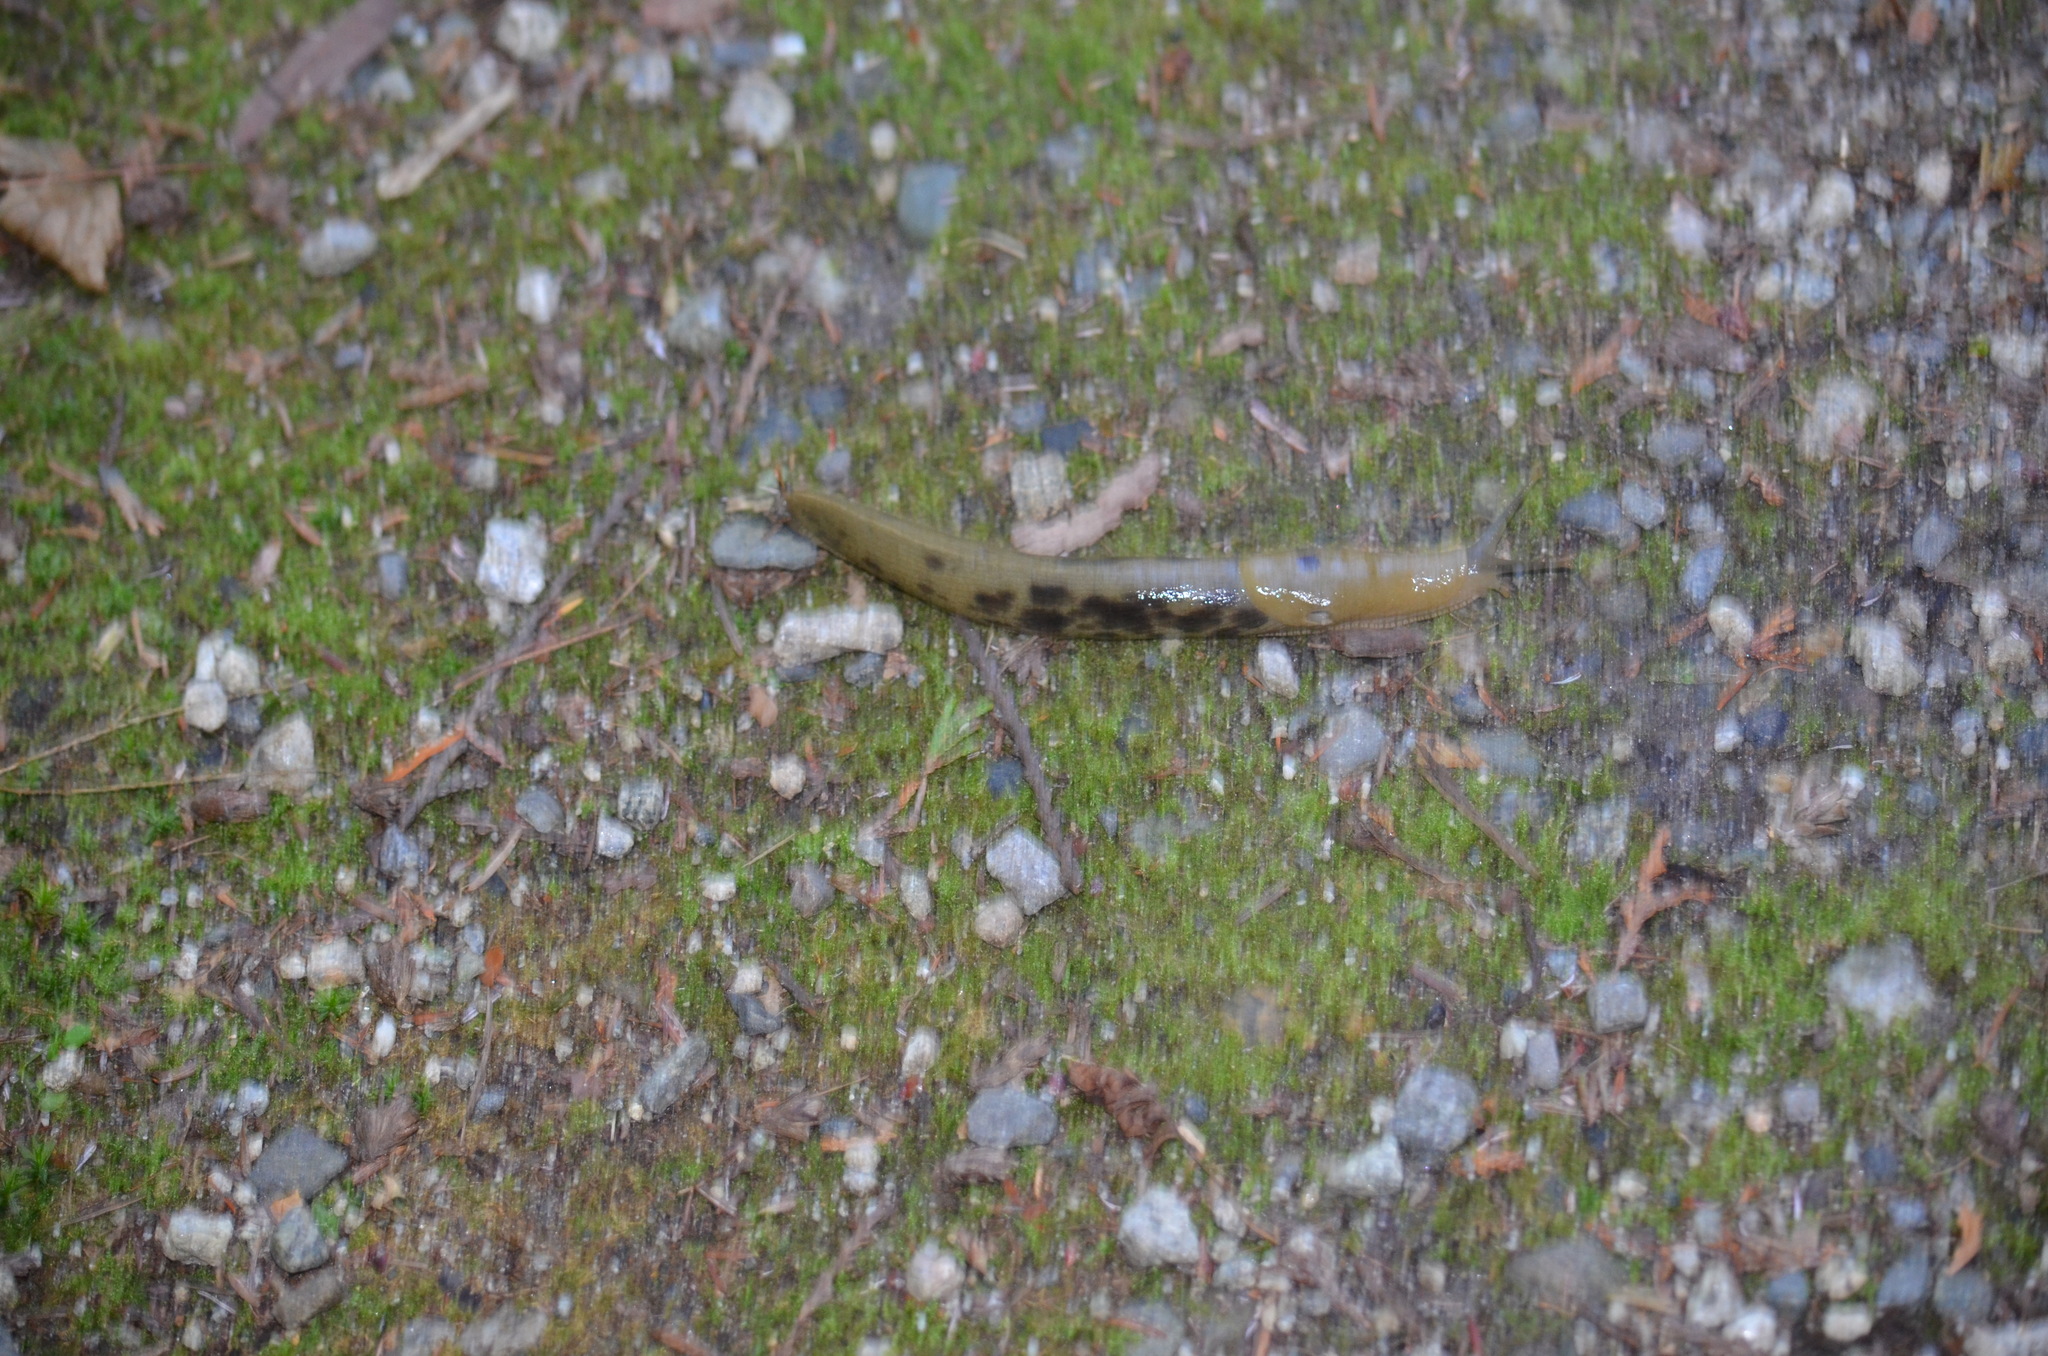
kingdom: Animalia
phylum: Mollusca
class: Gastropoda
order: Stylommatophora
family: Ariolimacidae
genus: Ariolimax
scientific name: Ariolimax columbianus
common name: Pacific banana slug
